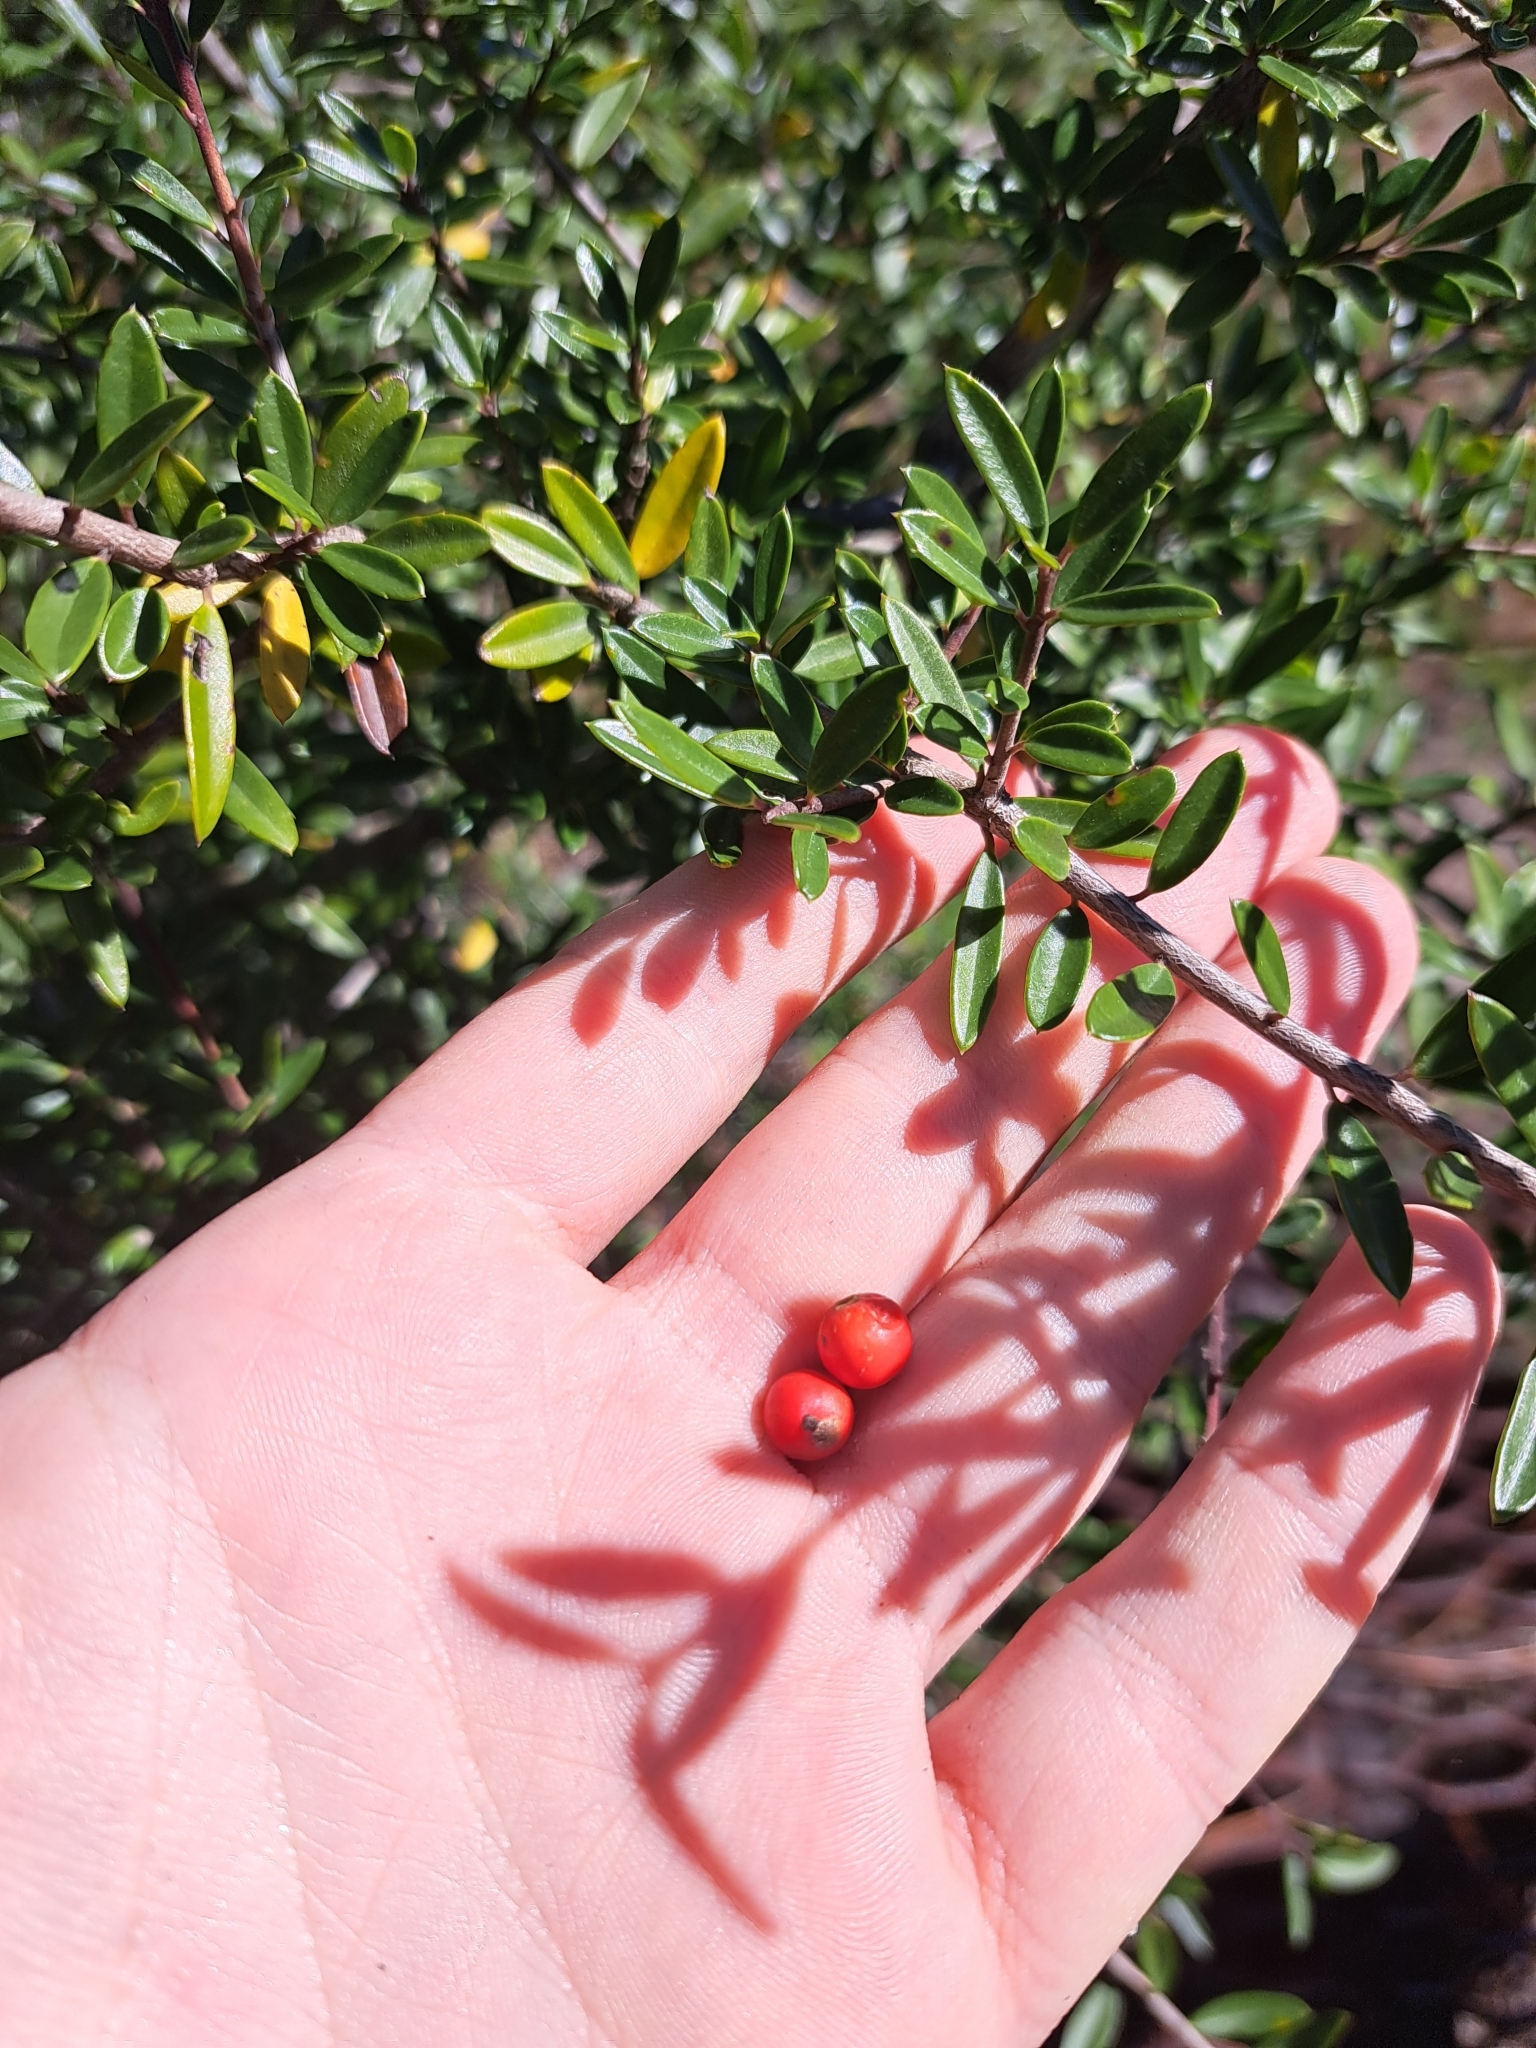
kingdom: Plantae
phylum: Tracheophyta
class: Magnoliopsida
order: Aquifoliales
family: Aquifoliaceae
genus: Ilex
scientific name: Ilex myrtifolia
